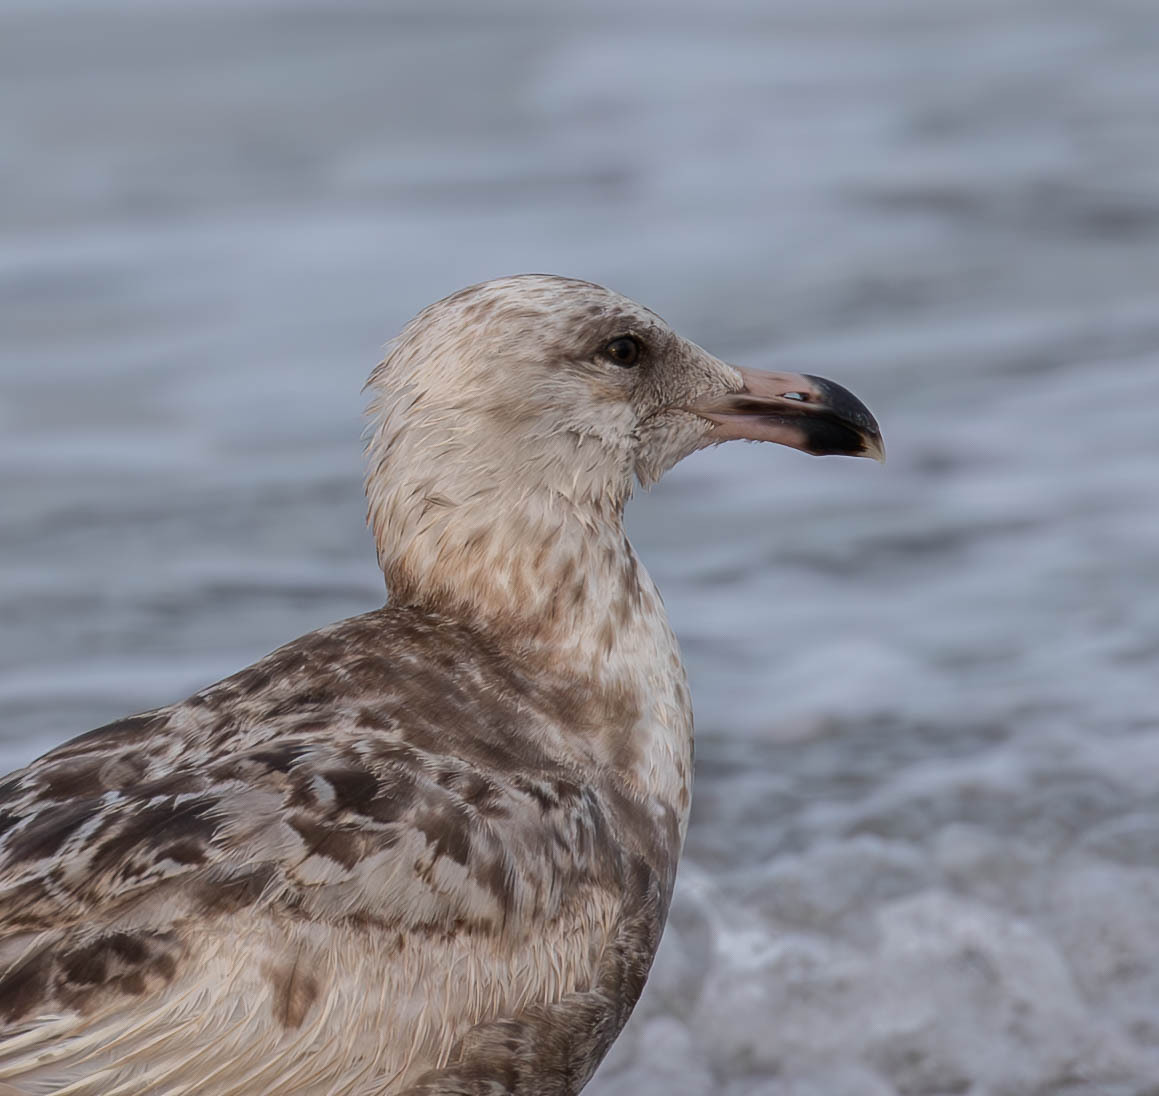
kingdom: Animalia
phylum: Chordata
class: Aves
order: Charadriiformes
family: Laridae
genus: Larus
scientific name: Larus argentatus
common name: Herring gull
